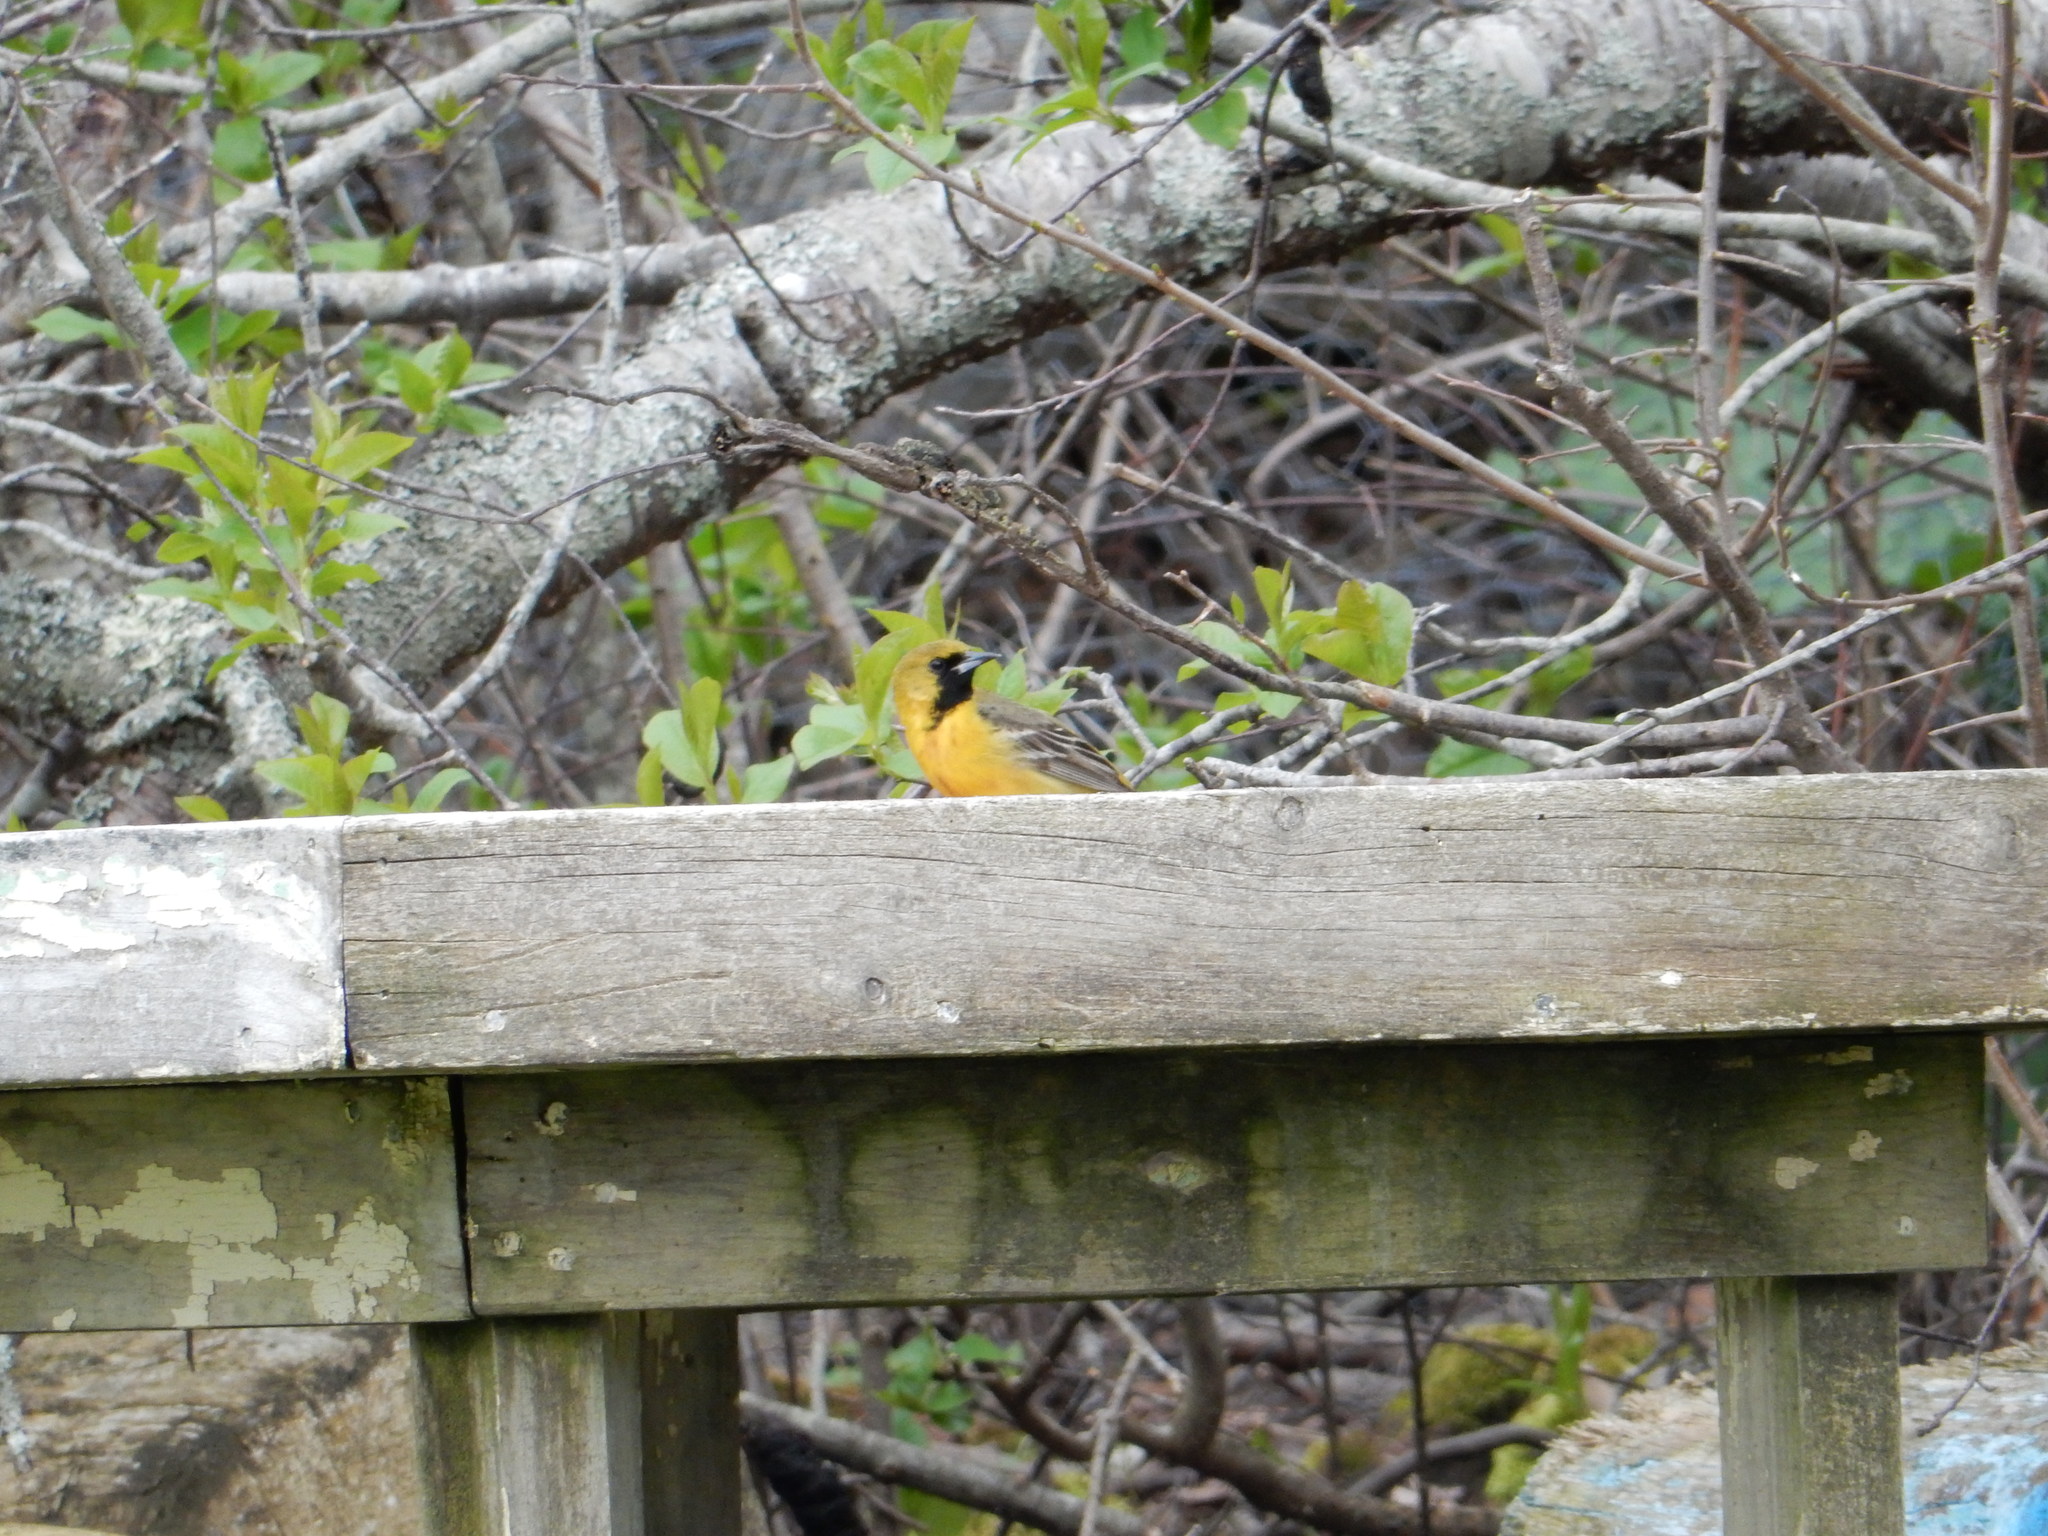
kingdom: Animalia
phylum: Chordata
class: Aves
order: Passeriformes
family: Icteridae
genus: Icterus
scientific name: Icterus spurius
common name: Orchard oriole
